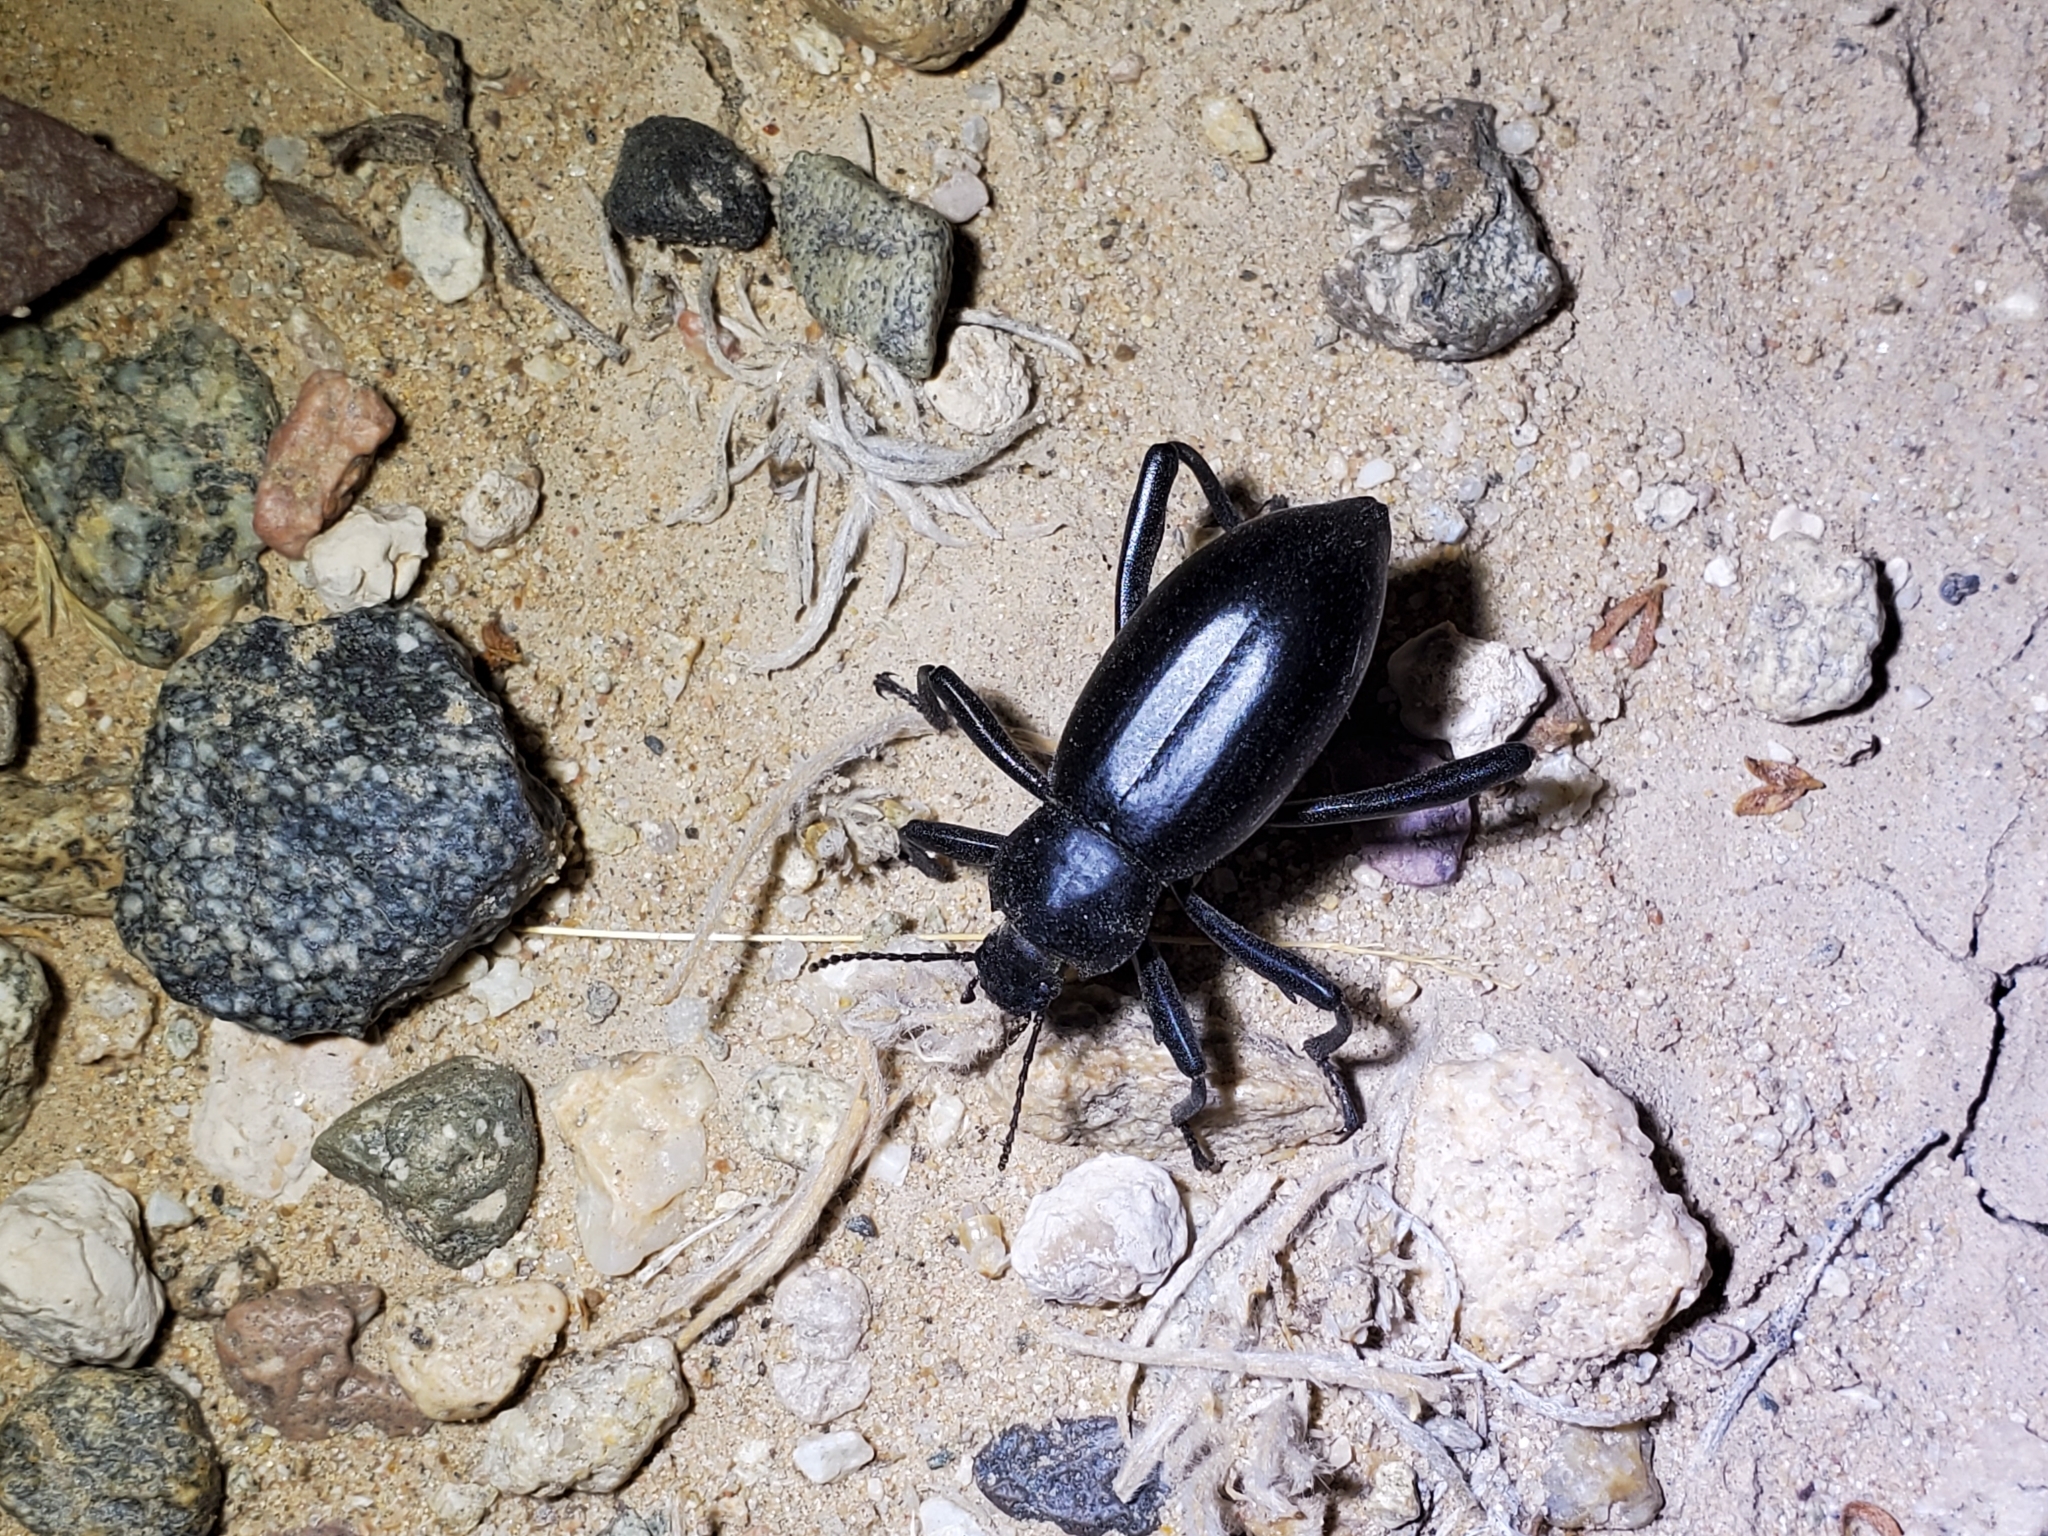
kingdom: Animalia
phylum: Arthropoda
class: Insecta
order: Coleoptera
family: Tenebrionidae
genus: Eleodes
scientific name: Eleodes armata
